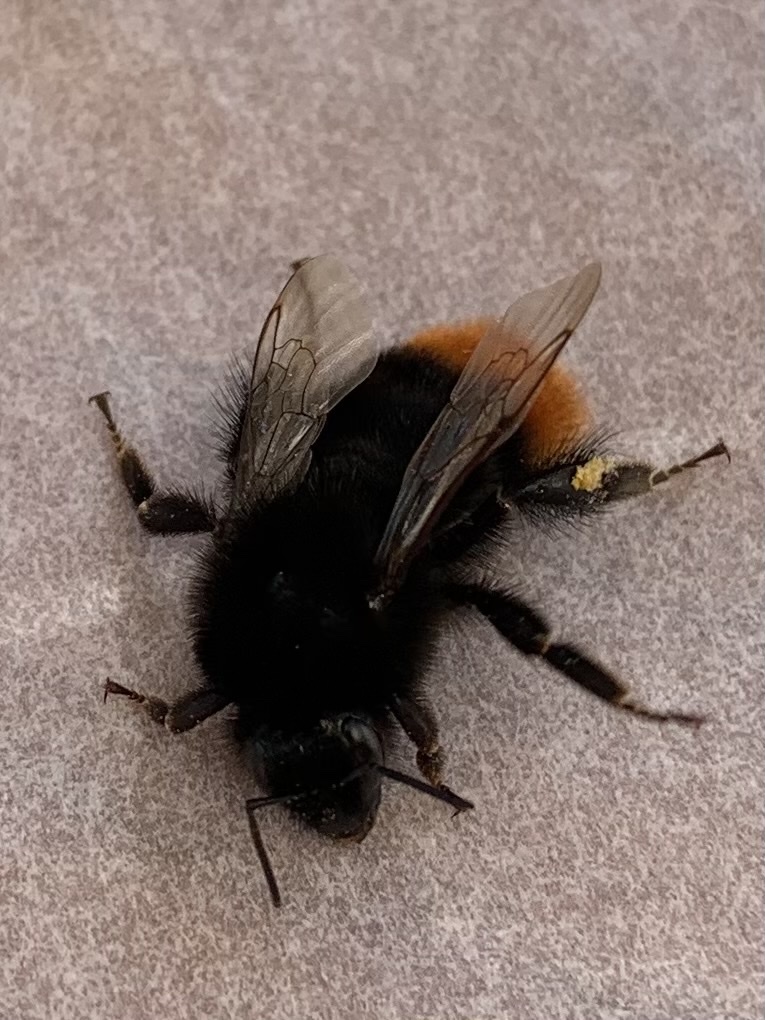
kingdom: Animalia
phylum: Arthropoda
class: Insecta
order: Hymenoptera
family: Apidae
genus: Bombus
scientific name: Bombus lapidarius
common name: Large red-tailed humble-bee
